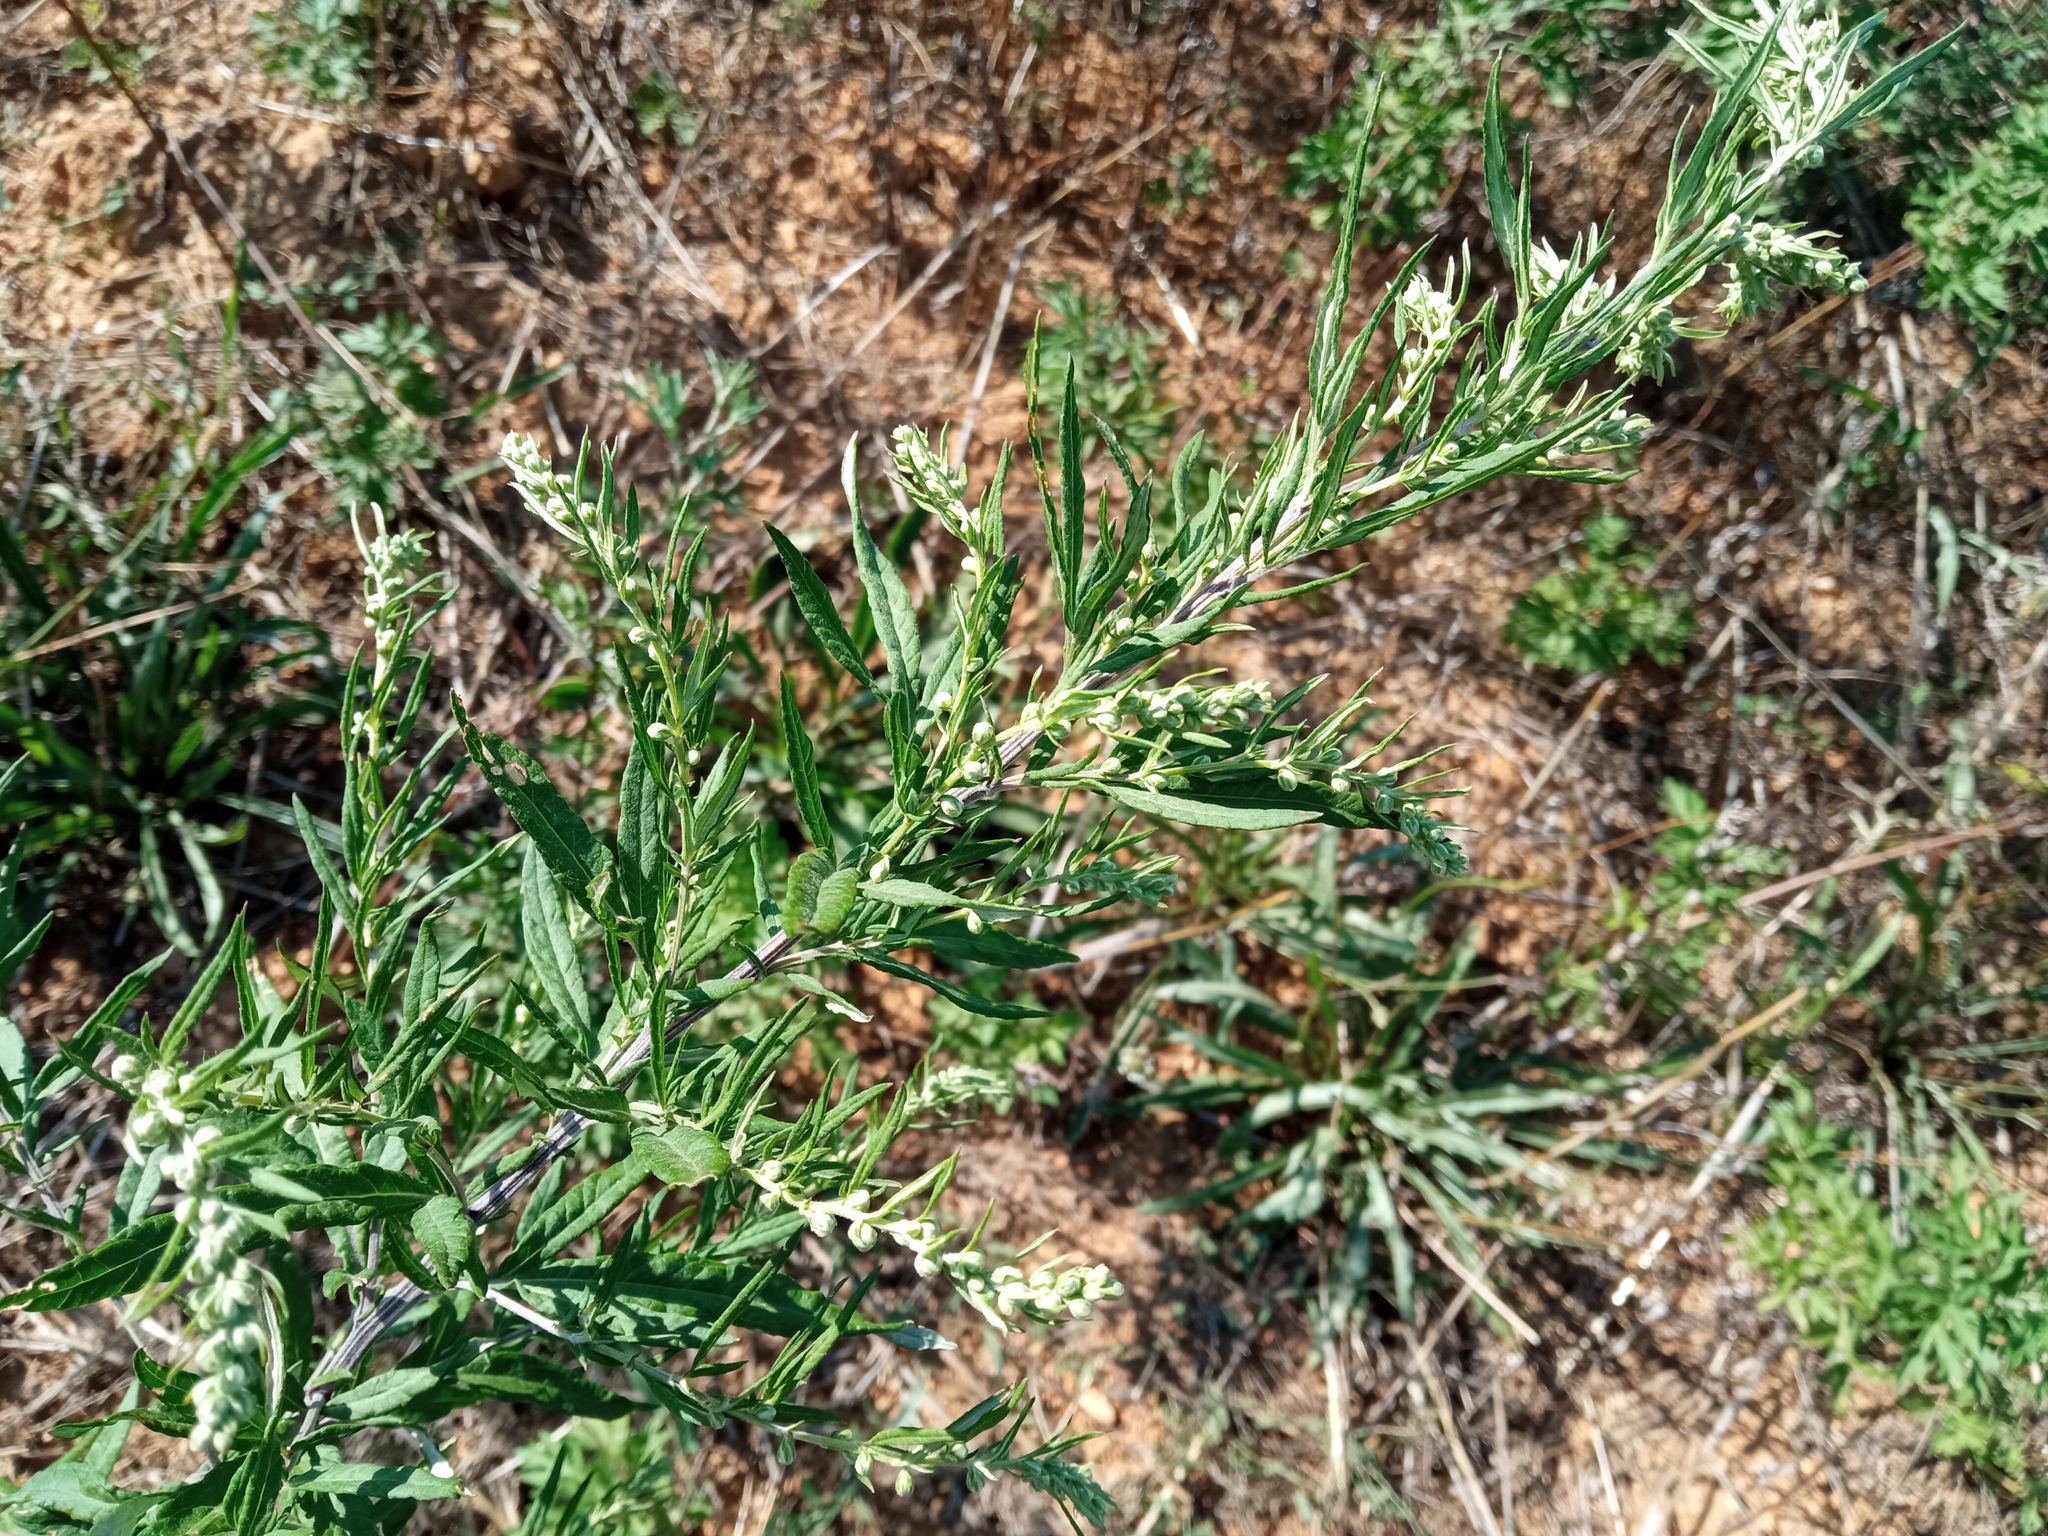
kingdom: Plantae
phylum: Tracheophyta
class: Magnoliopsida
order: Asterales
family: Asteraceae
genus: Artemisia
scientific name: Artemisia verlotiorum
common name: Chinese mugwort
